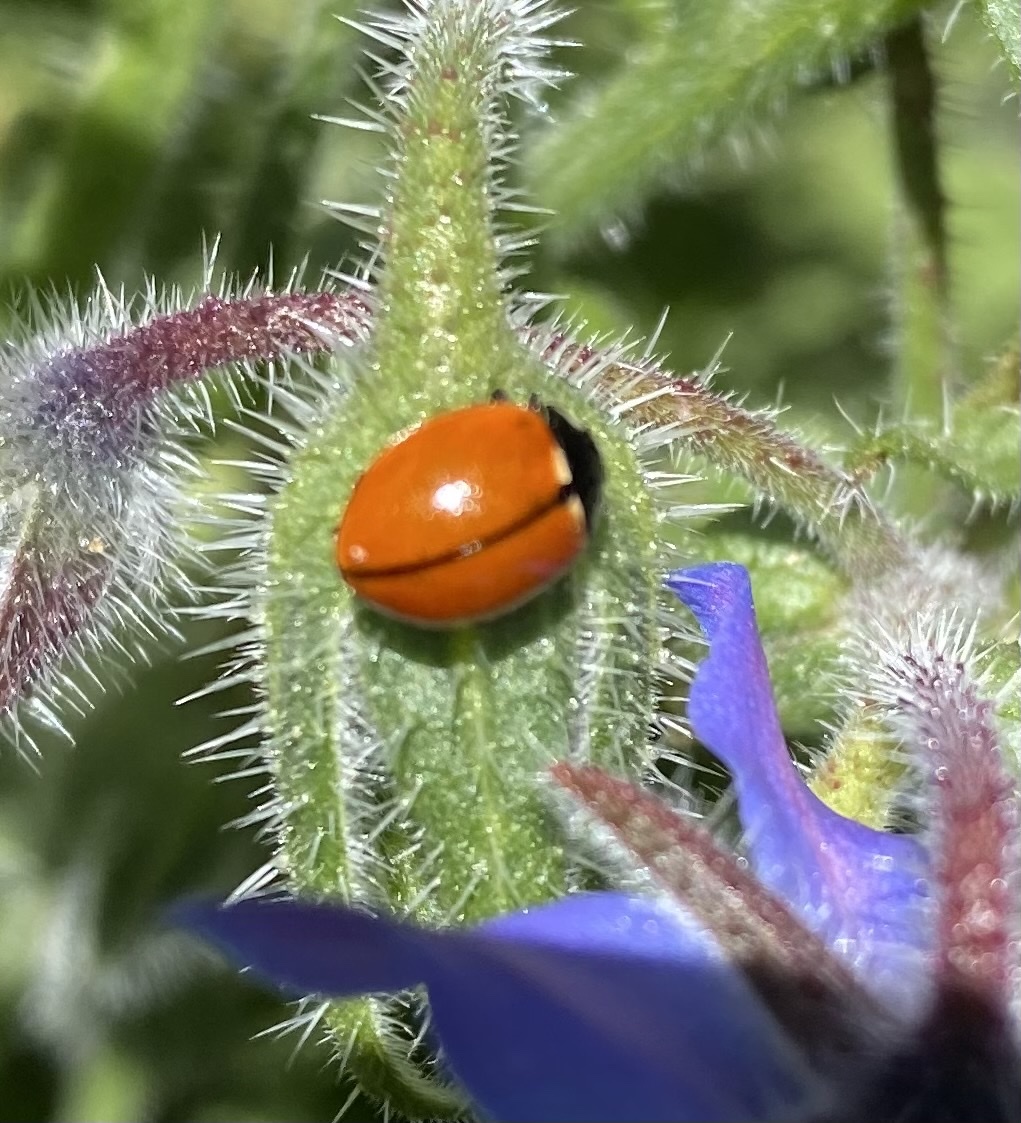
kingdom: Animalia
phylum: Arthropoda
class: Insecta
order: Coleoptera
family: Coccinellidae
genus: Coccinella
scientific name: Coccinella californica
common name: Lady beetle
